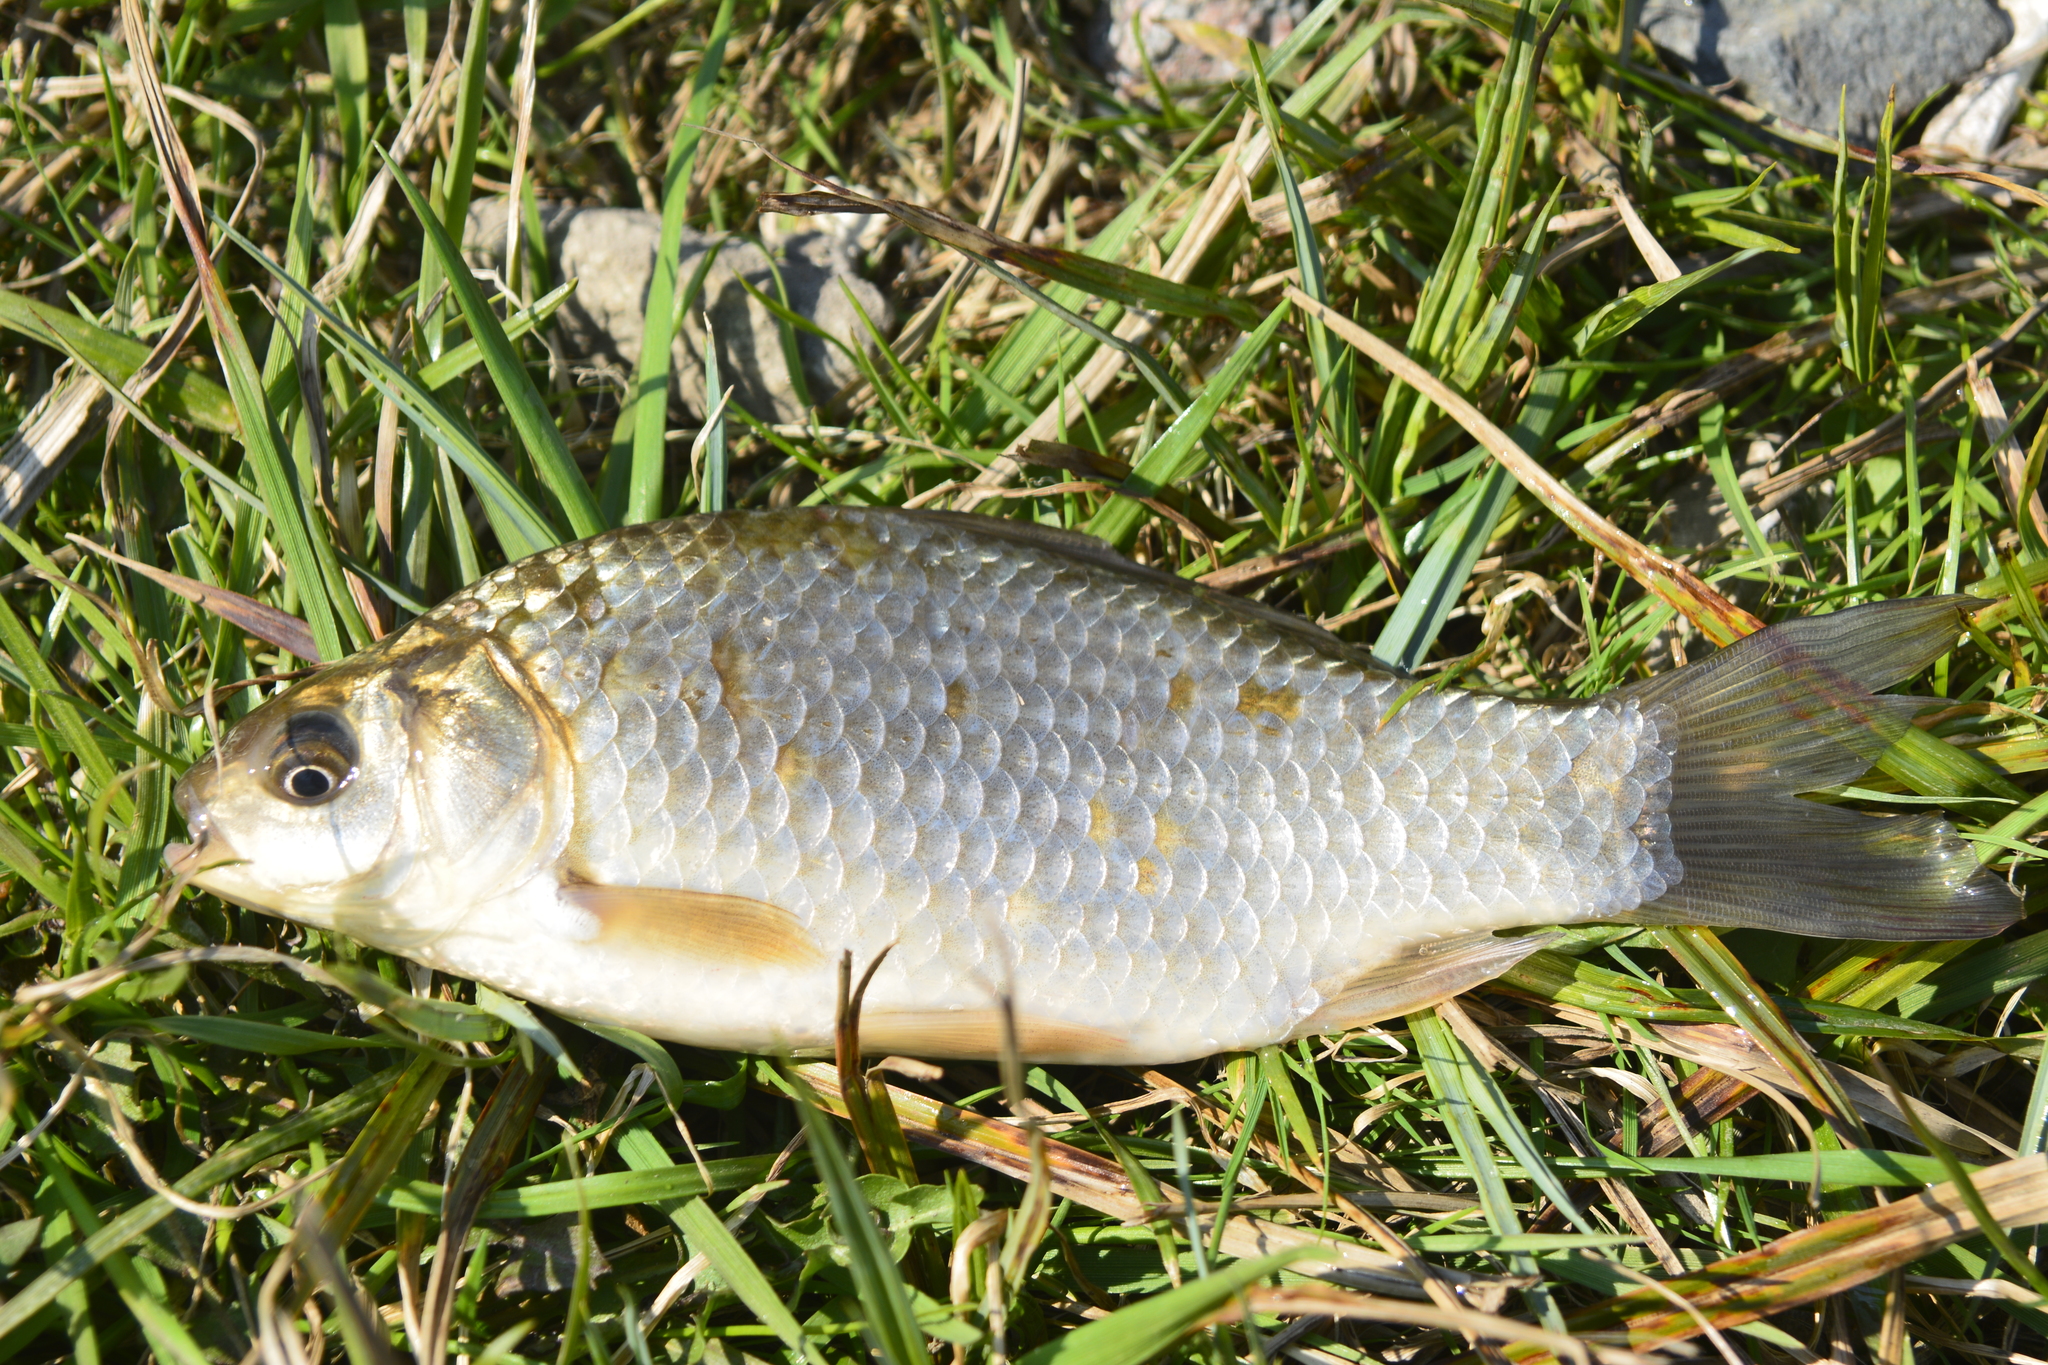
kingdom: Animalia
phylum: Chordata
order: Cypriniformes
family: Cyprinidae
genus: Carassius
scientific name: Carassius gibelio
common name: Prussian carp
